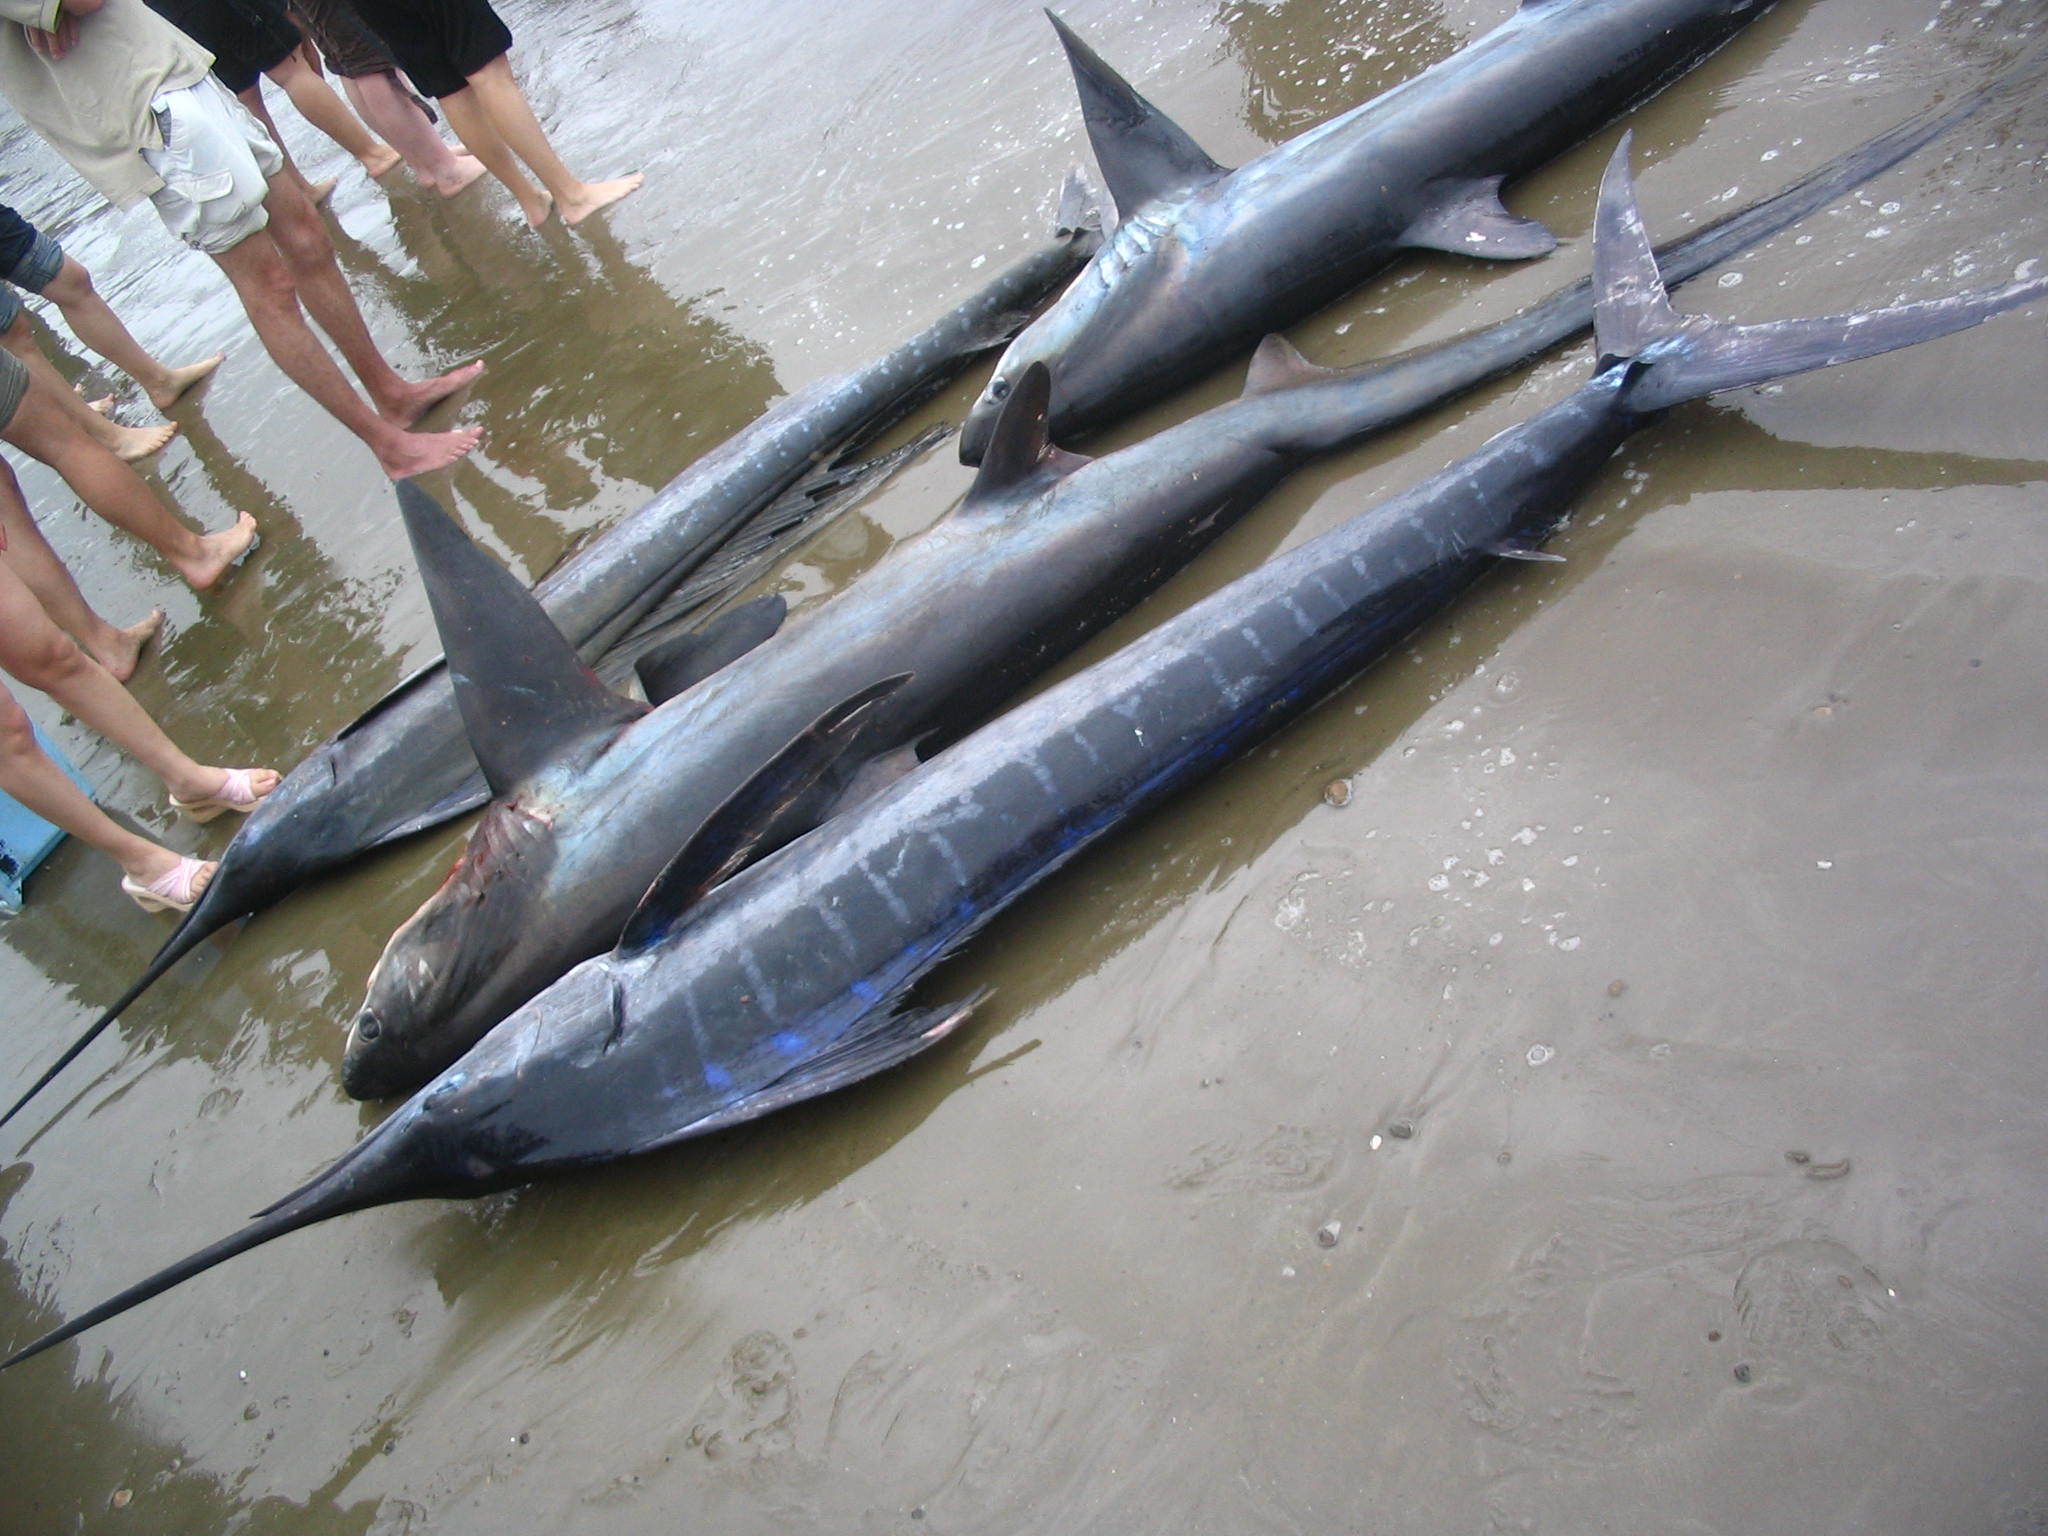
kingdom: Animalia
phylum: Chordata
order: Perciformes
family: Istiophoridae
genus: Kajikia
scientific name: Kajikia audax
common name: Striped marlin
